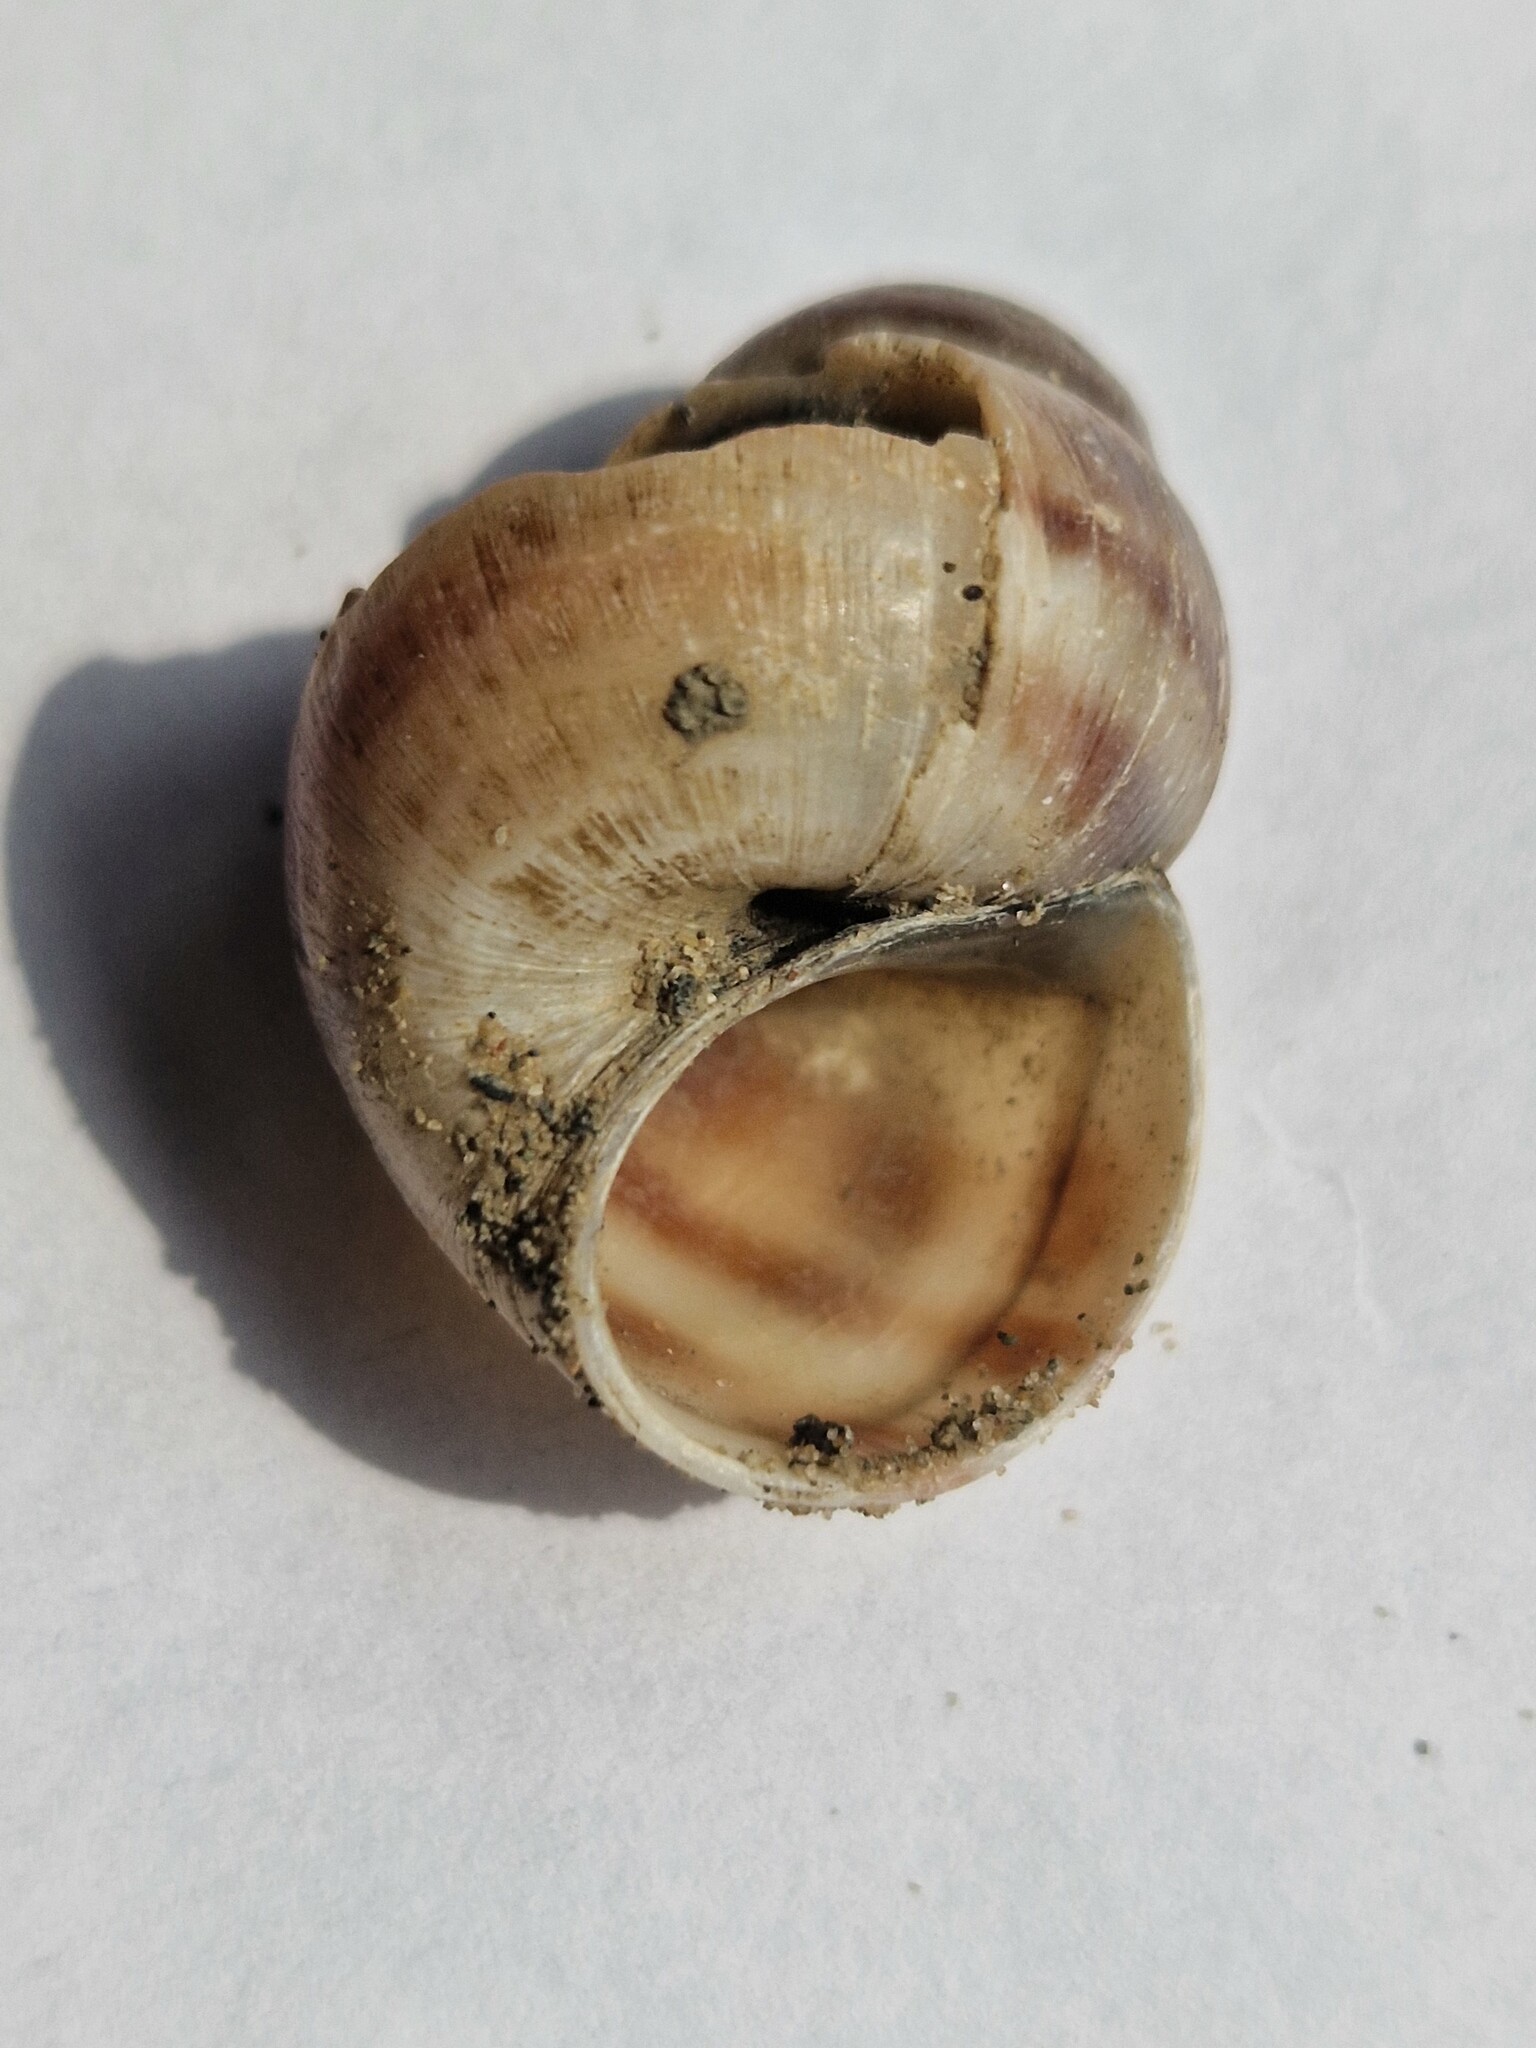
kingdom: Animalia
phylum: Mollusca
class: Gastropoda
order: Architaenioglossa
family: Viviparidae
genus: Viviparus
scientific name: Viviparus viviparus
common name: River snail
